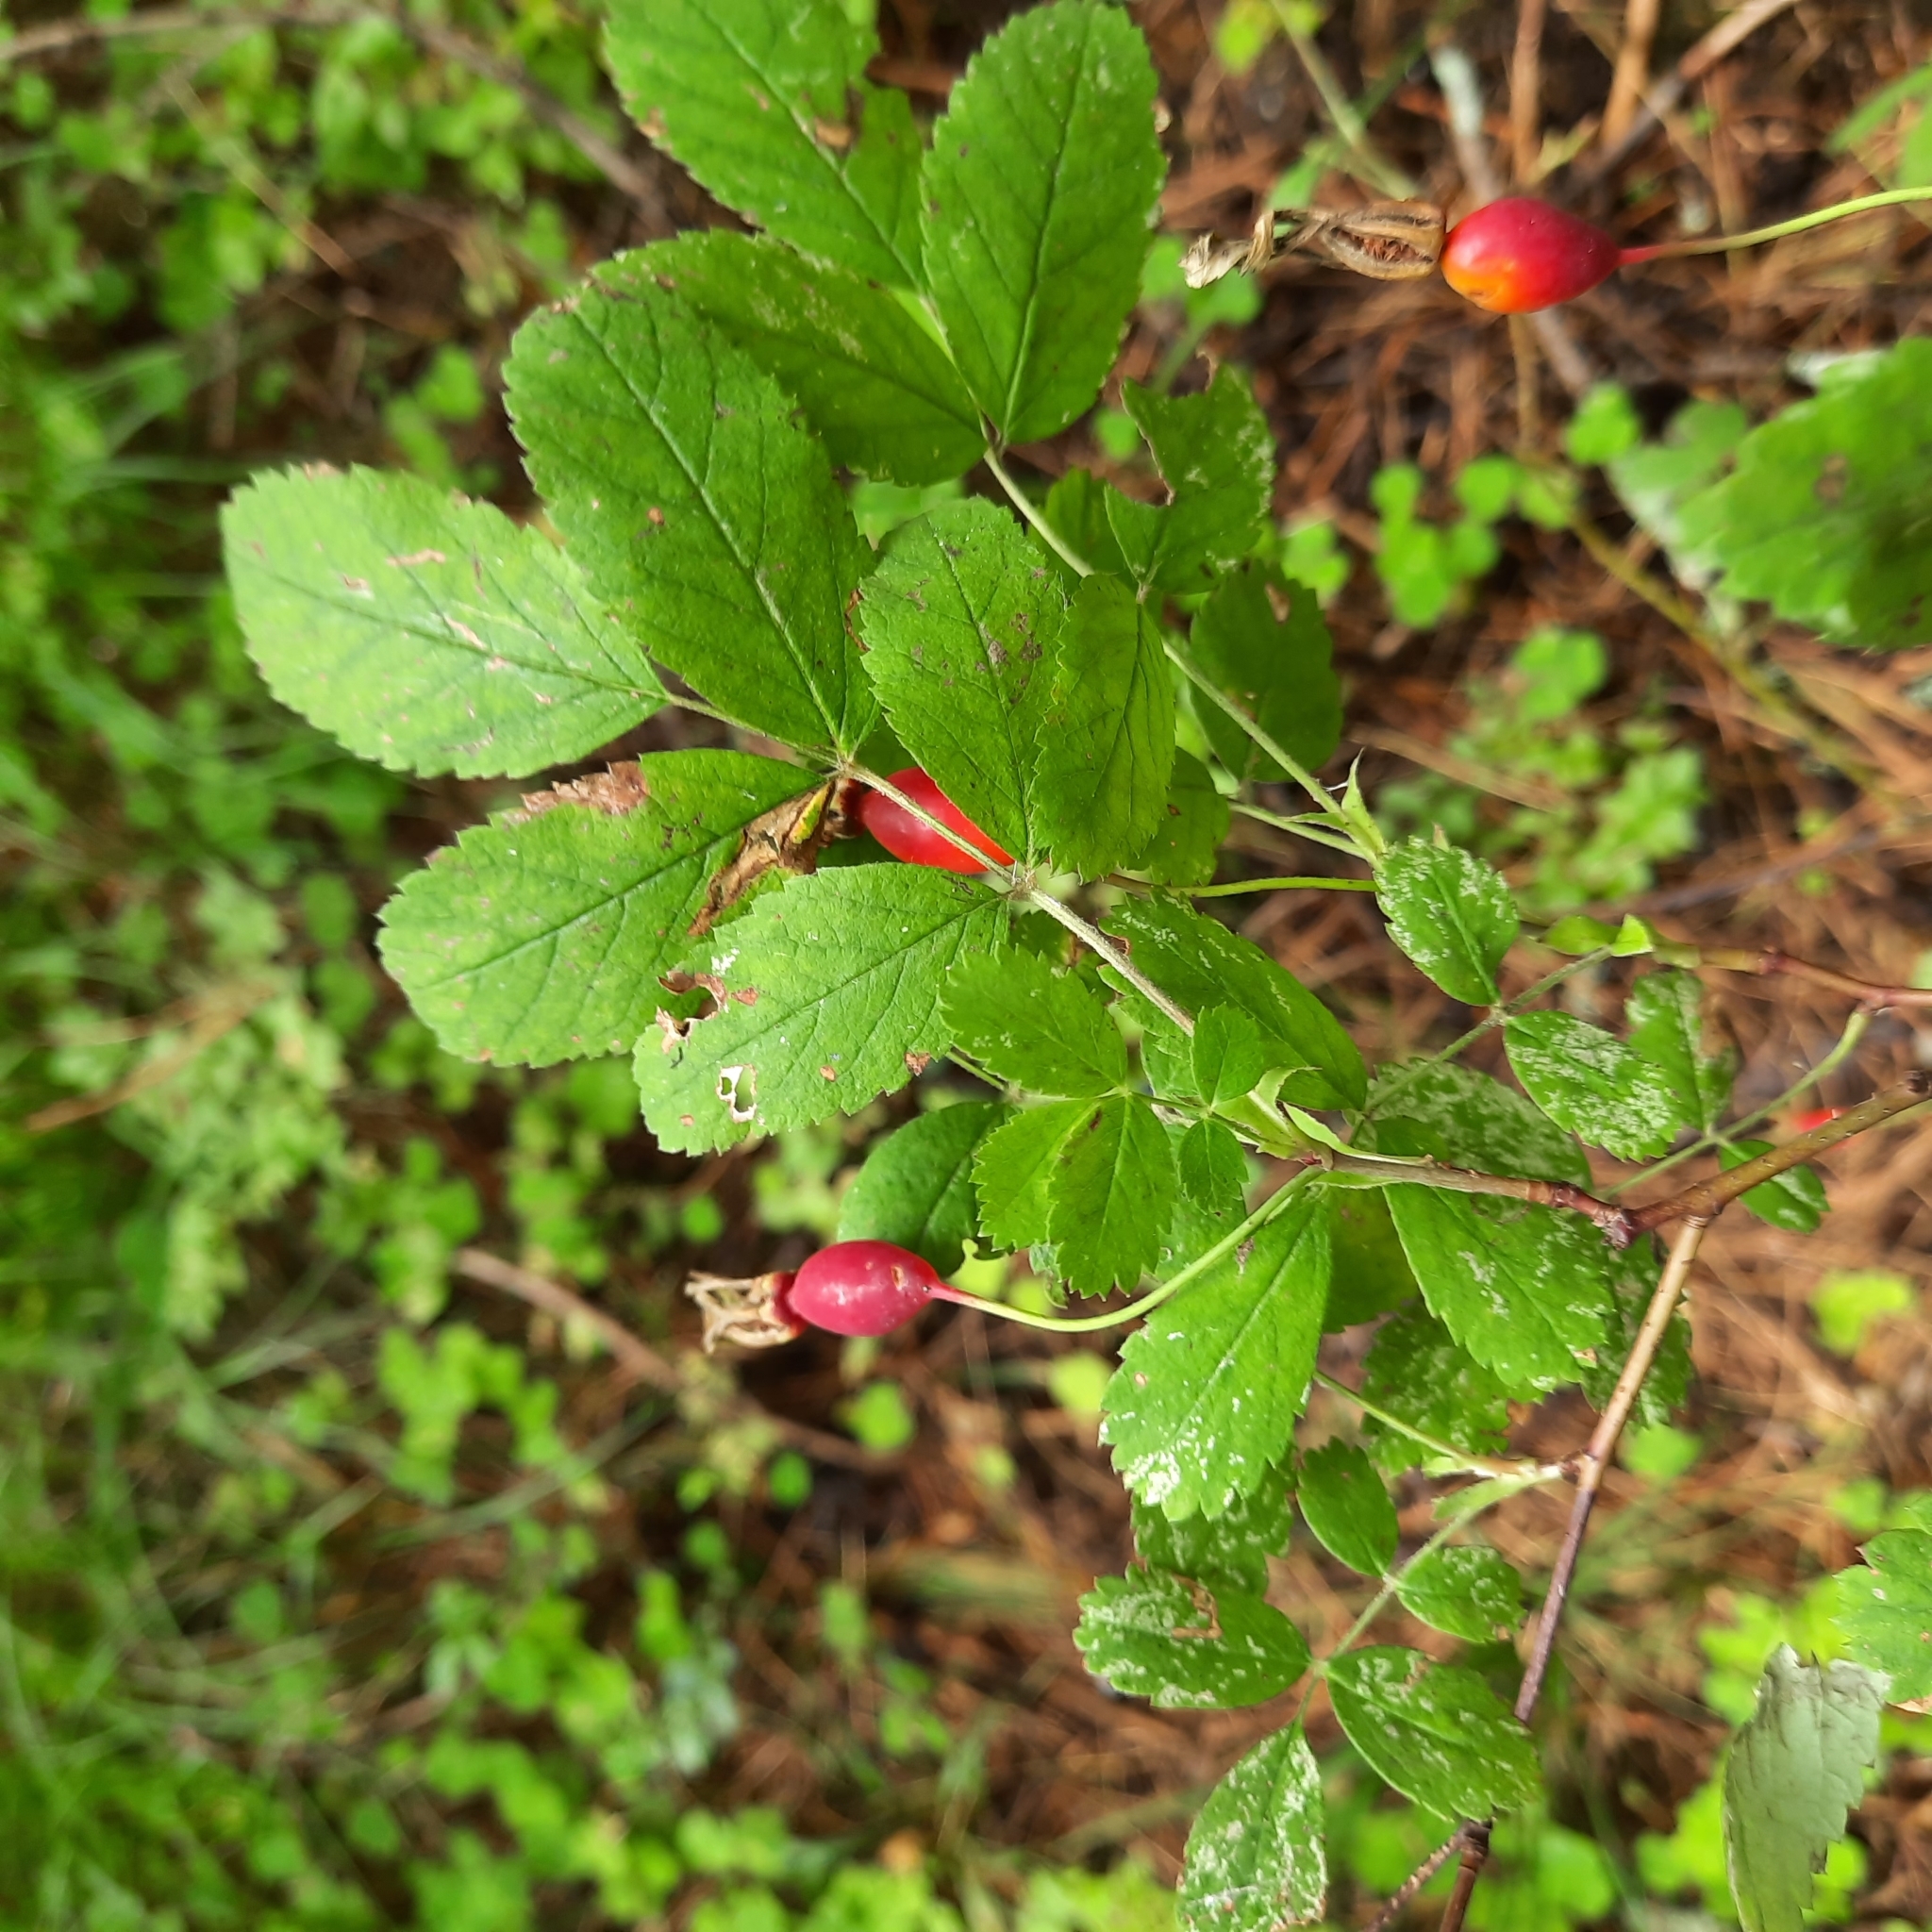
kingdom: Plantae
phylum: Tracheophyta
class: Magnoliopsida
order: Rosales
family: Rosaceae
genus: Rosa
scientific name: Rosa acicularis
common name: Prickly rose
